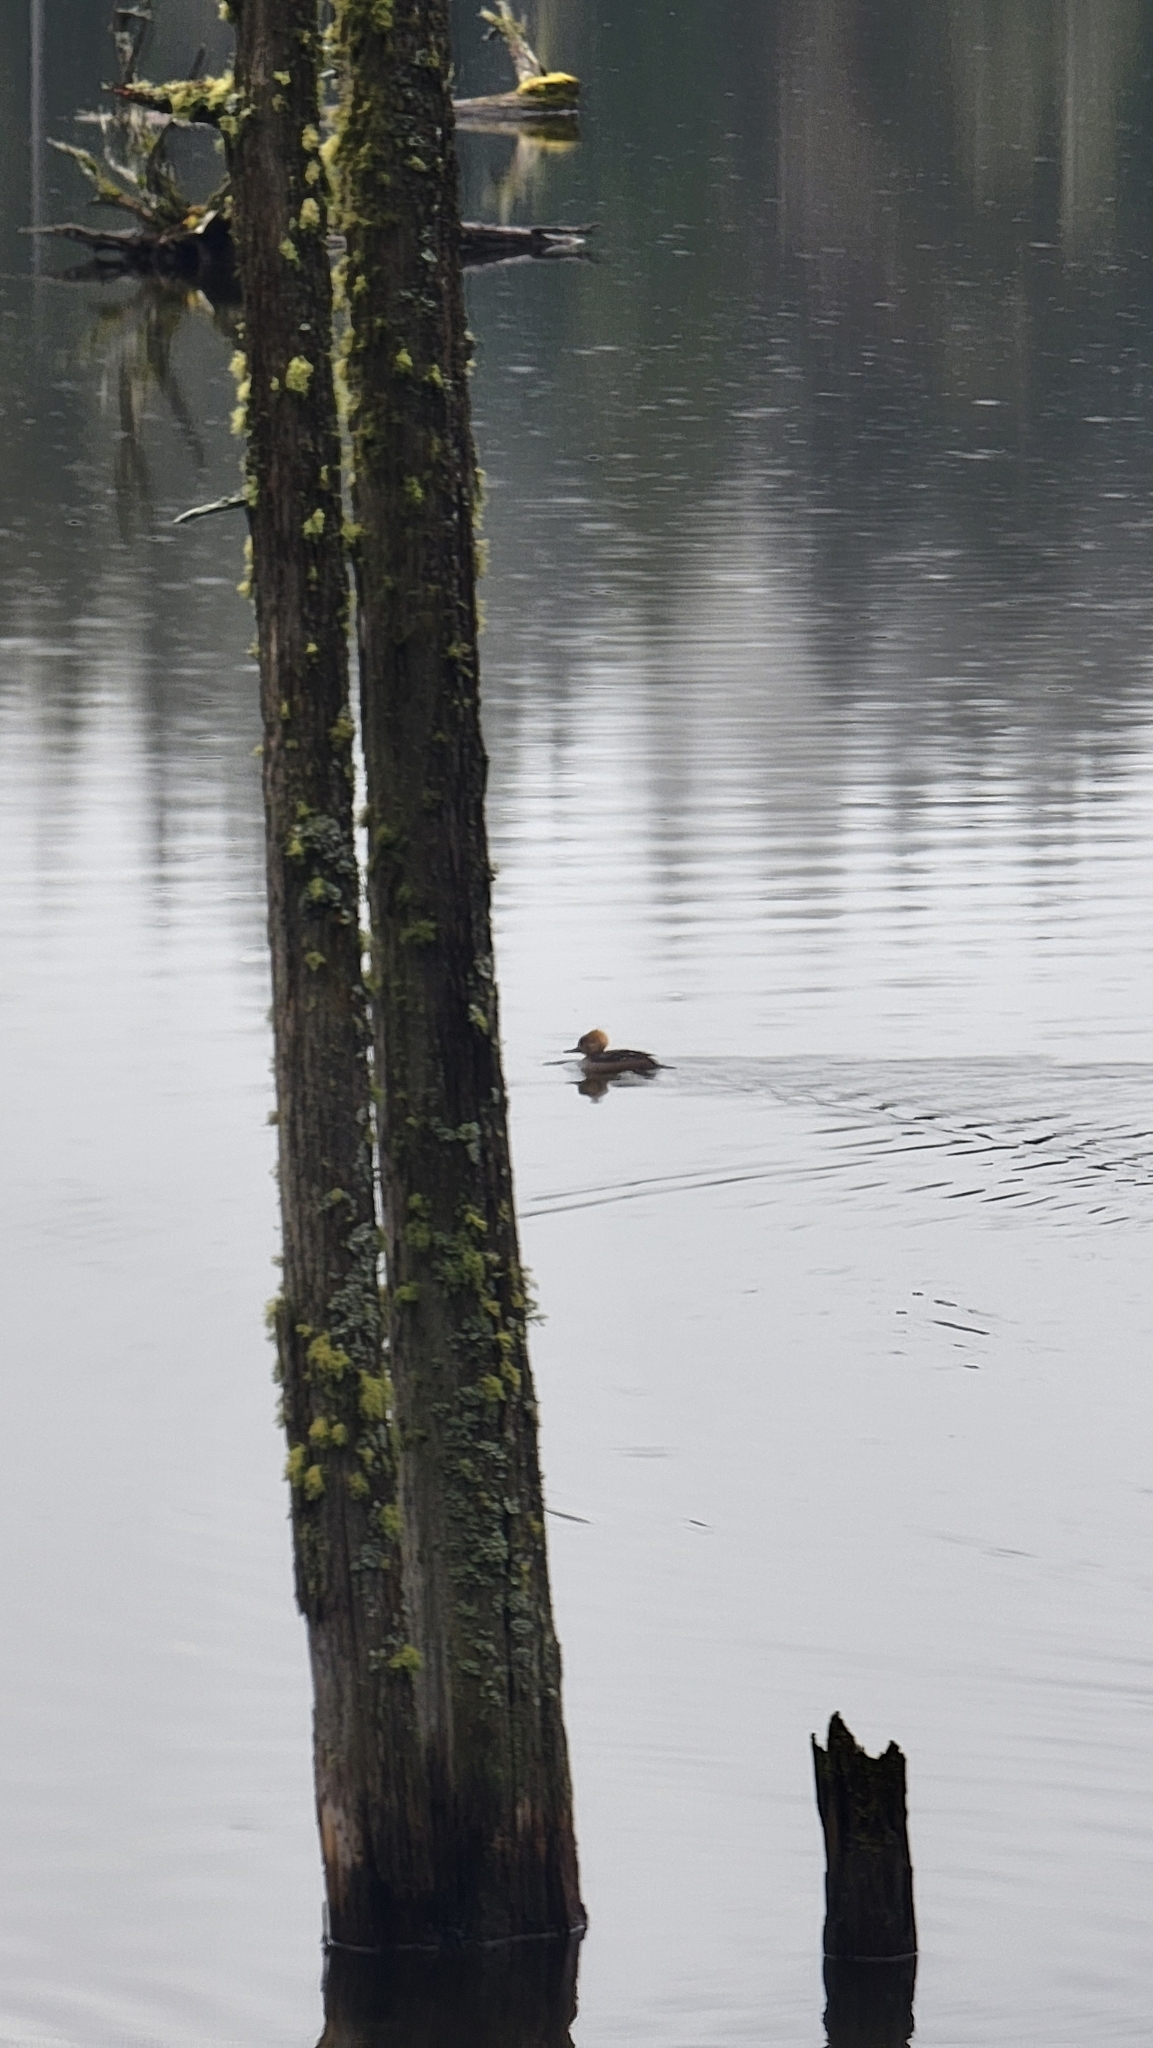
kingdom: Animalia
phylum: Chordata
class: Aves
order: Anseriformes
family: Anatidae
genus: Lophodytes
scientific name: Lophodytes cucullatus
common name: Hooded merganser
